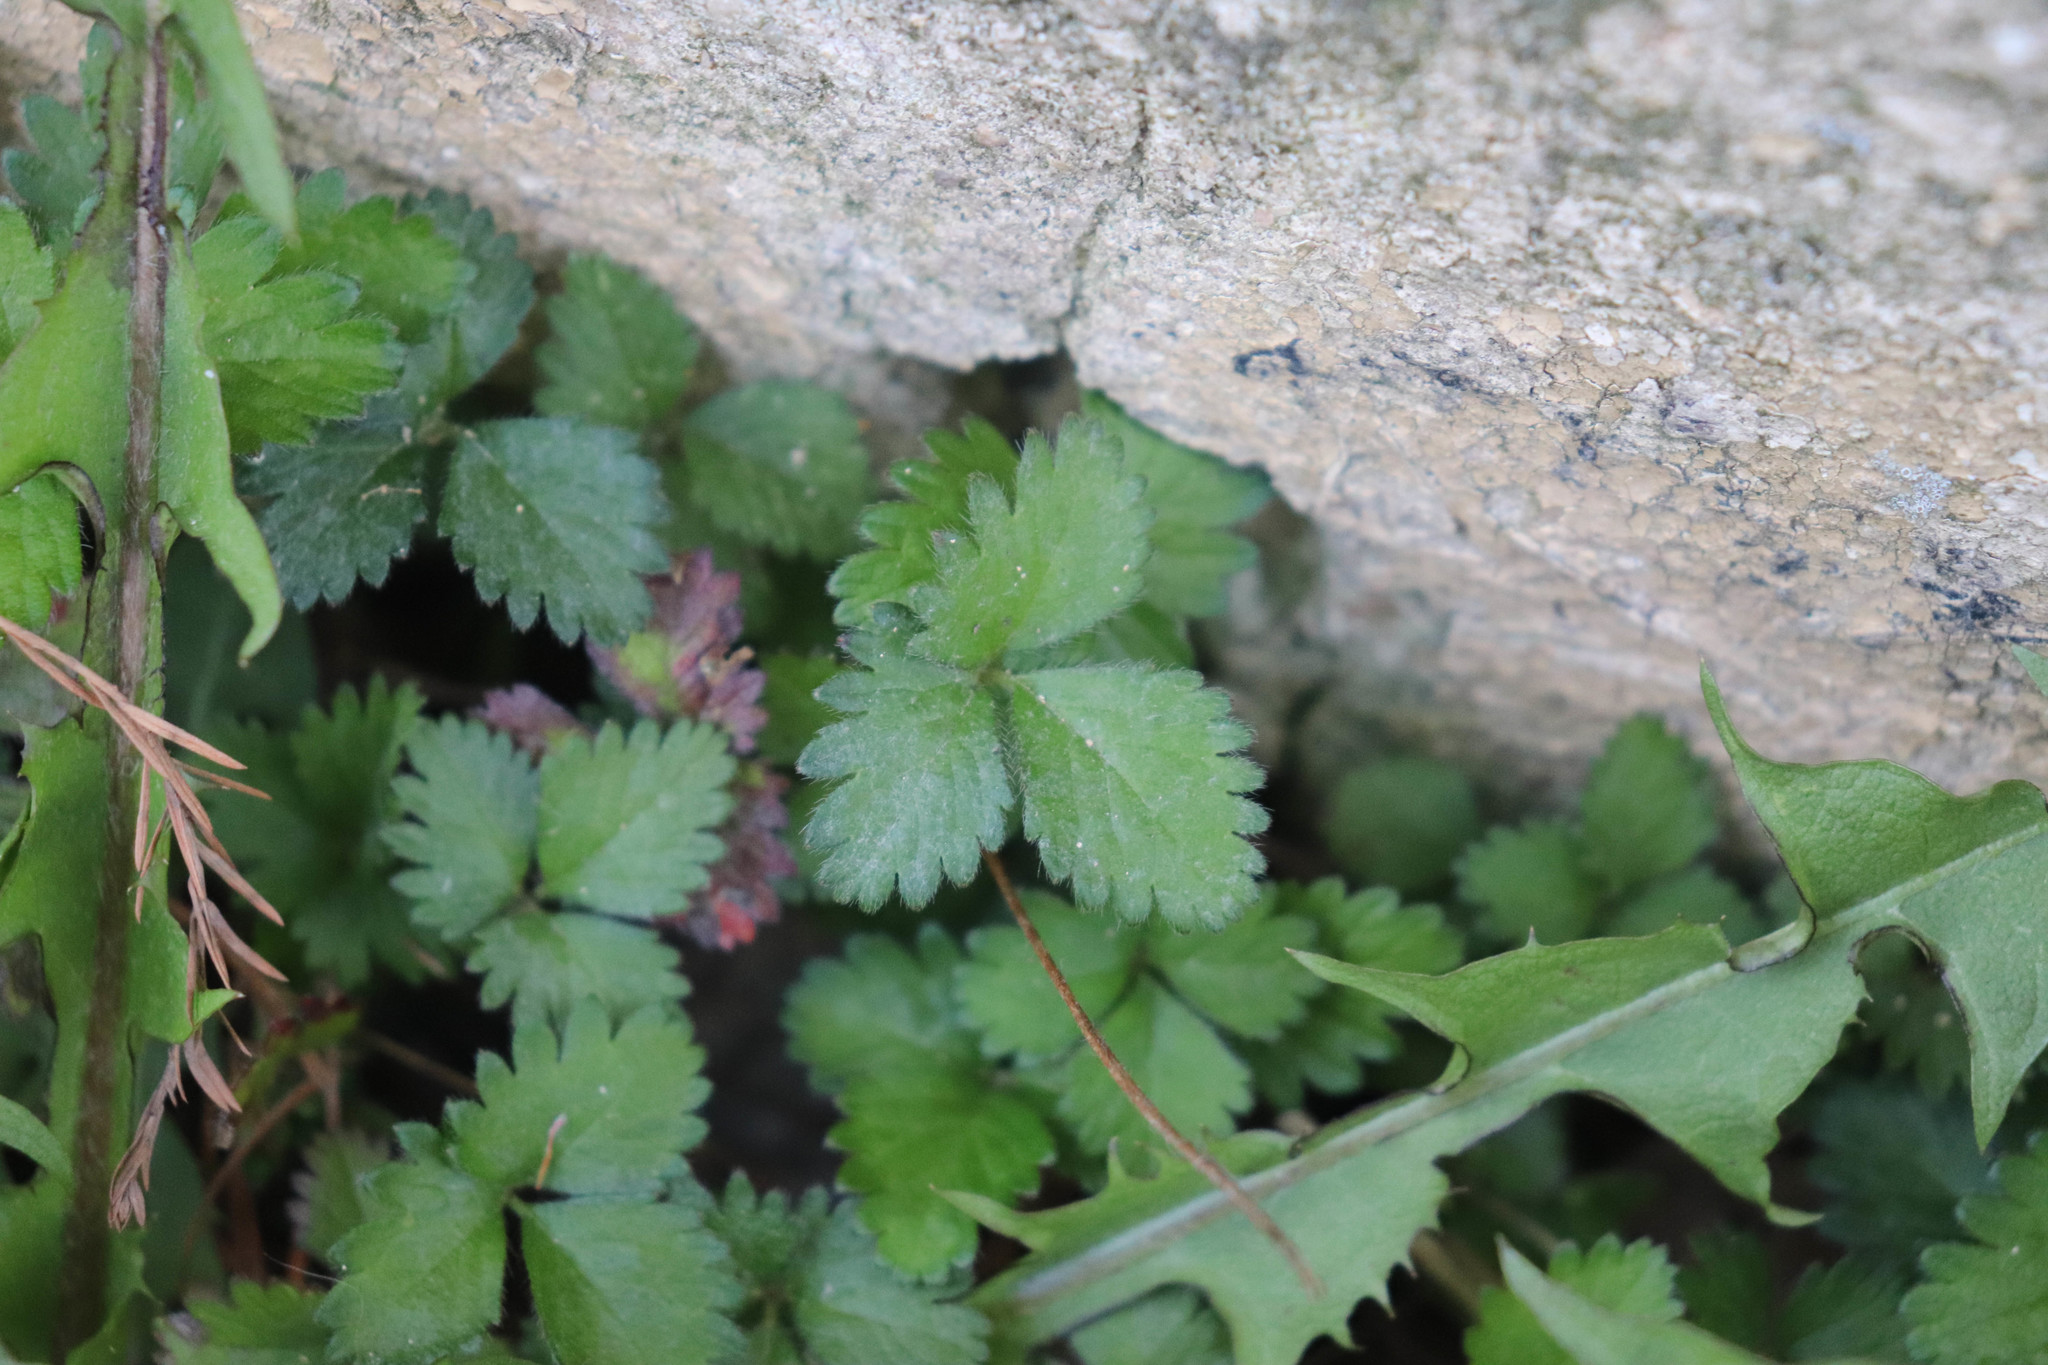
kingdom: Plantae
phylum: Tracheophyta
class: Magnoliopsida
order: Rosales
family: Rosaceae
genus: Potentilla
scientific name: Potentilla indica
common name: Yellow-flowered strawberry
